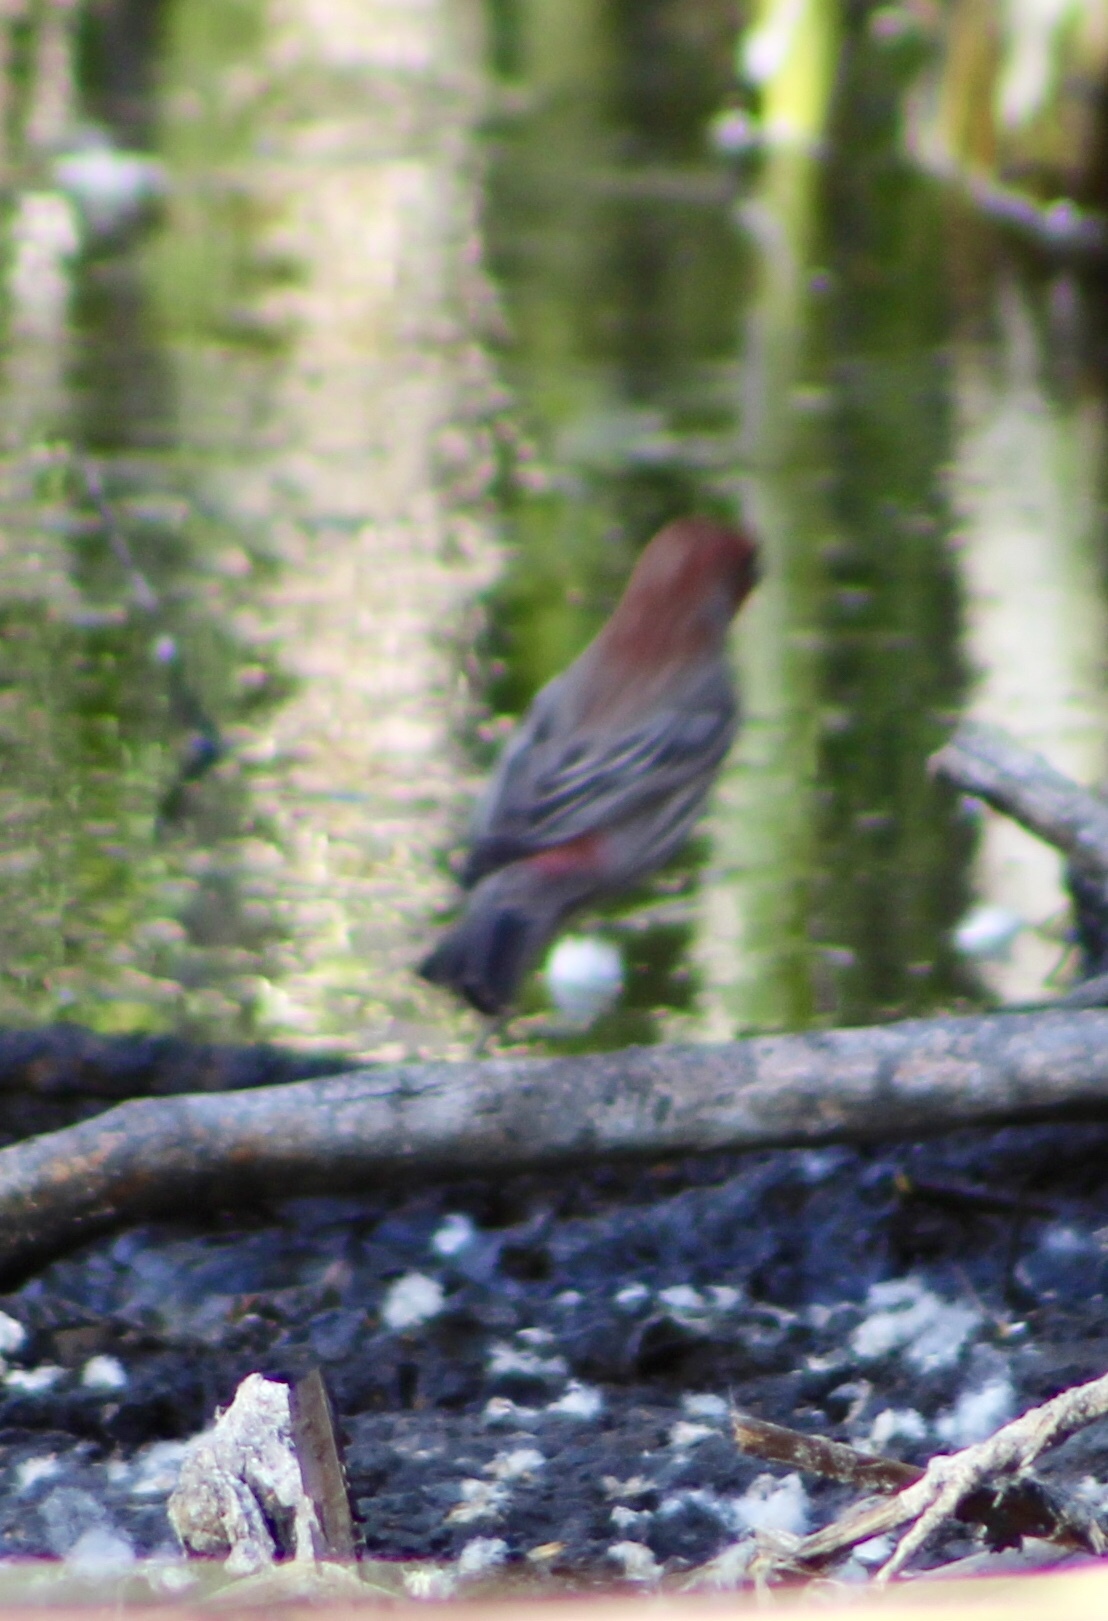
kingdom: Animalia
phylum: Chordata
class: Aves
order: Passeriformes
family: Fringillidae
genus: Haemorhous
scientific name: Haemorhous mexicanus
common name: House finch
